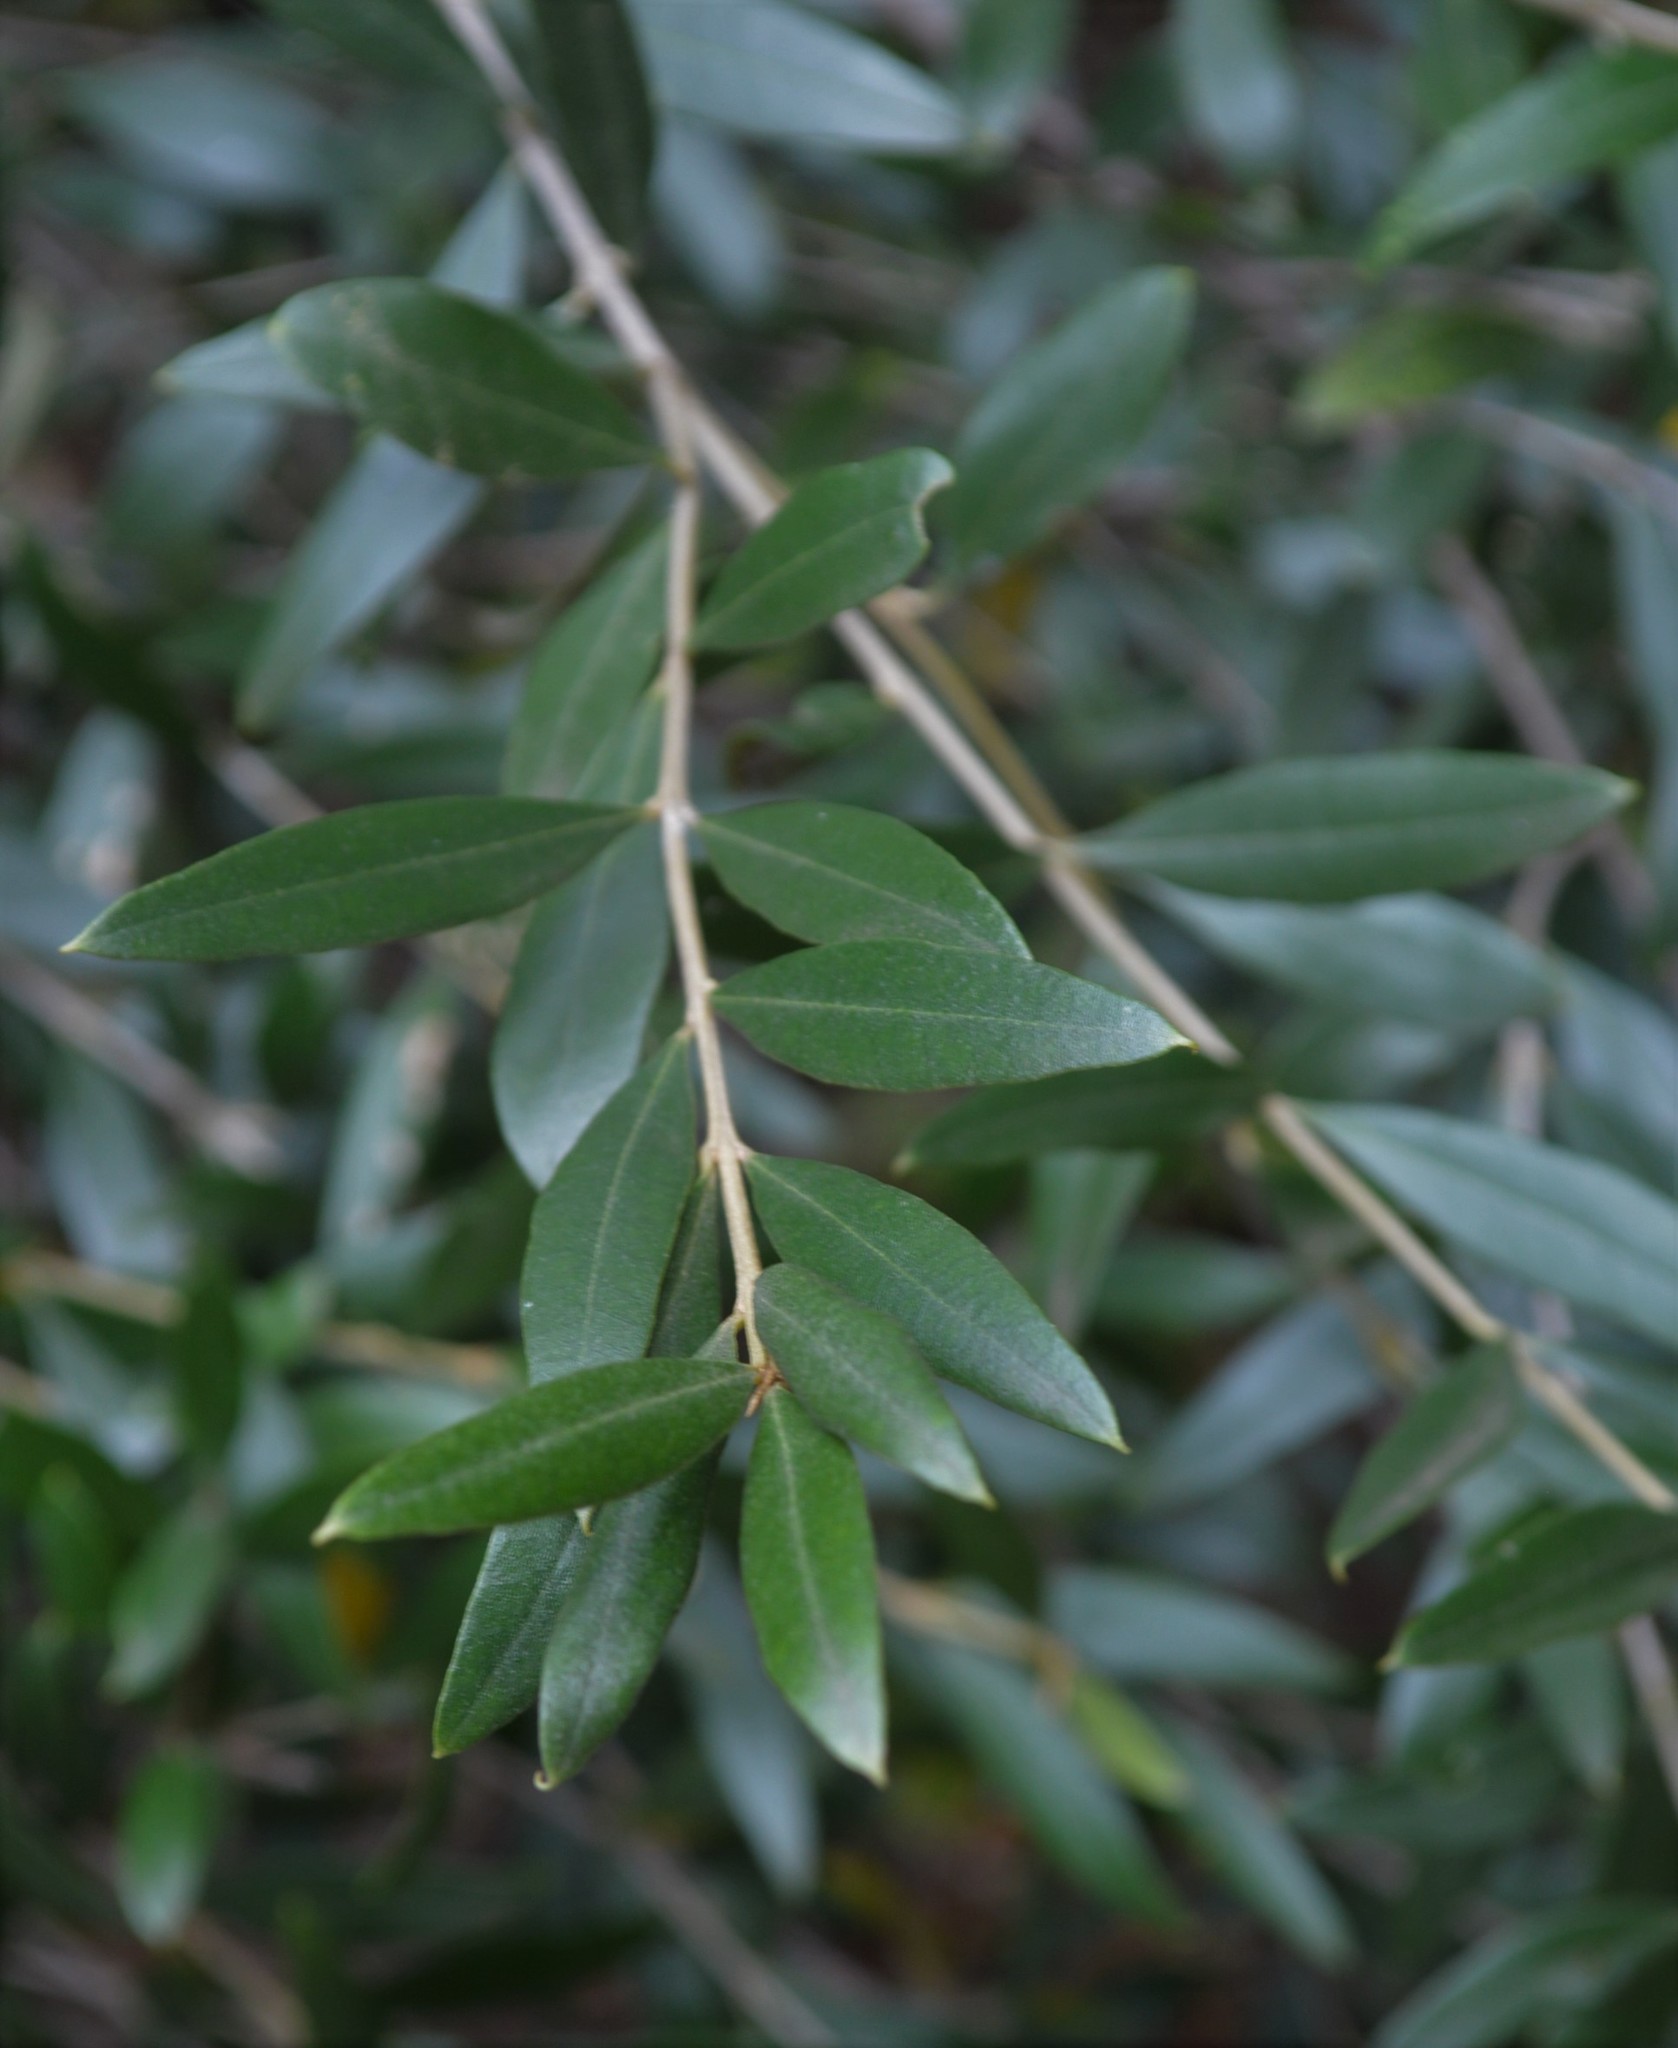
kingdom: Plantae
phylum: Tracheophyta
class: Magnoliopsida
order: Lamiales
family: Oleaceae
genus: Olea
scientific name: Olea europaea
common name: Olive
